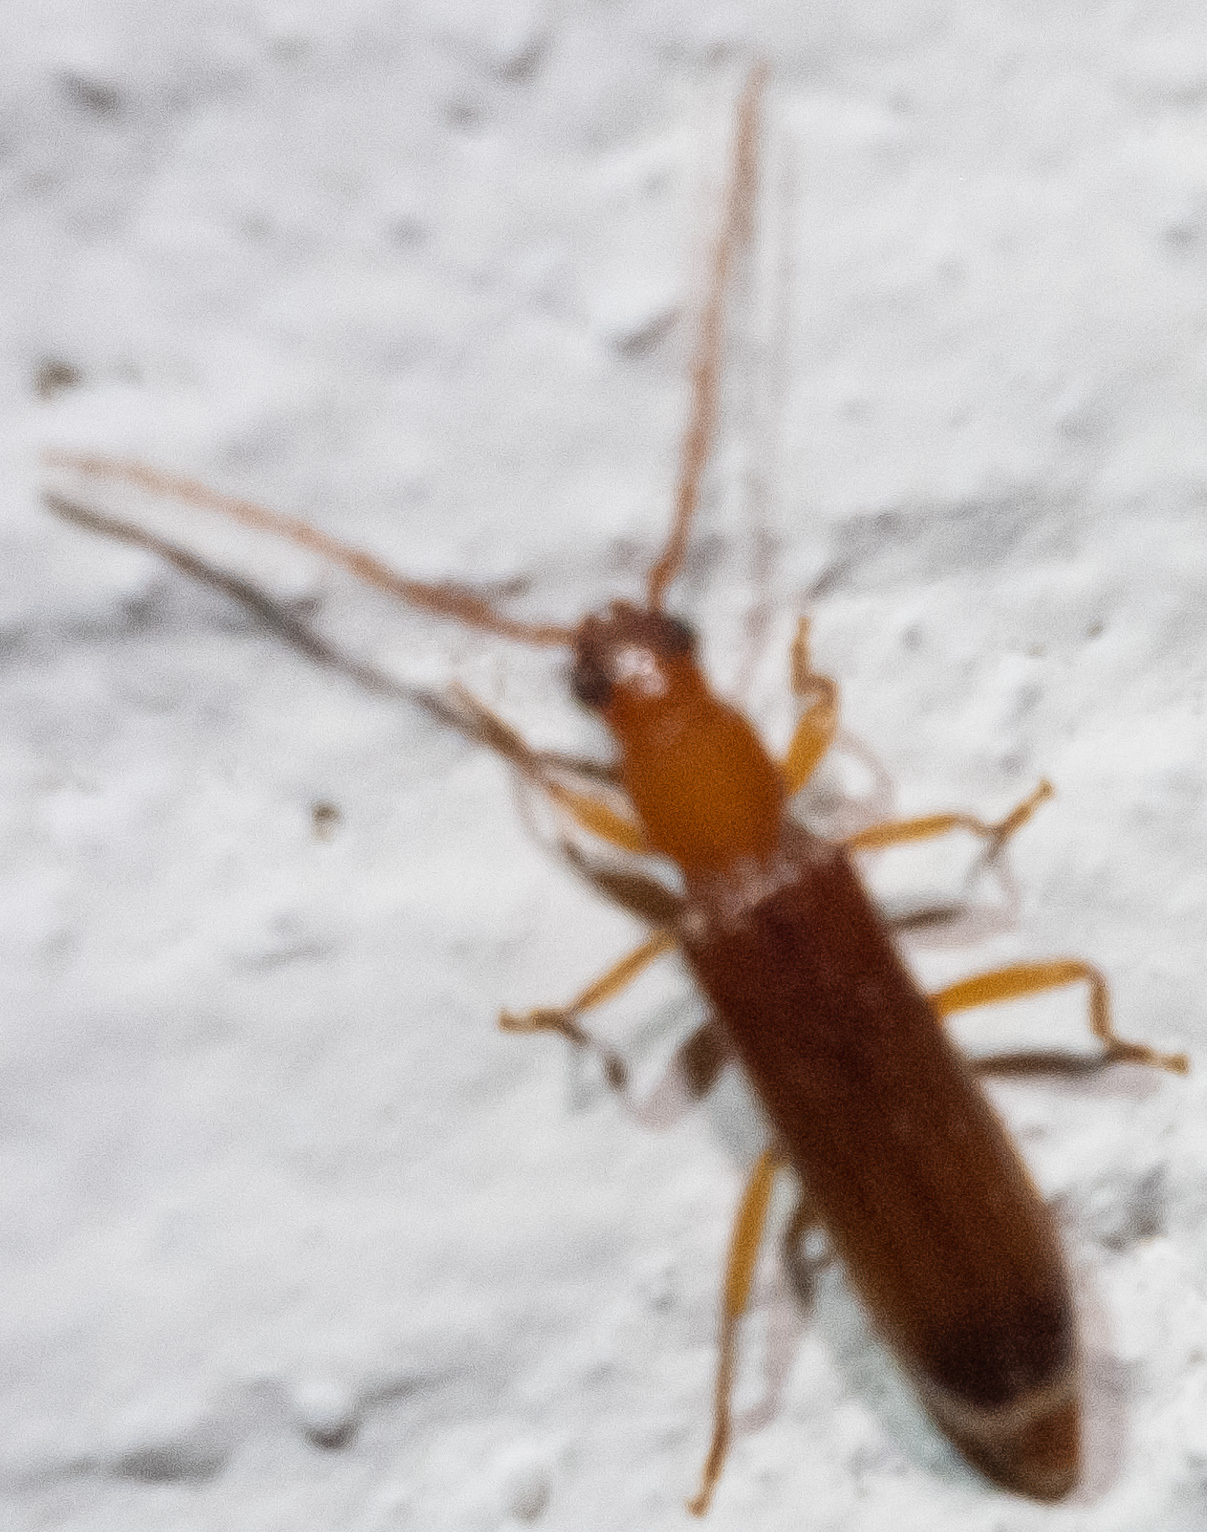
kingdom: Animalia
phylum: Arthropoda
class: Insecta
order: Coleoptera
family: Cerambycidae
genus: Smodicum
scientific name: Smodicum cucujiforme
